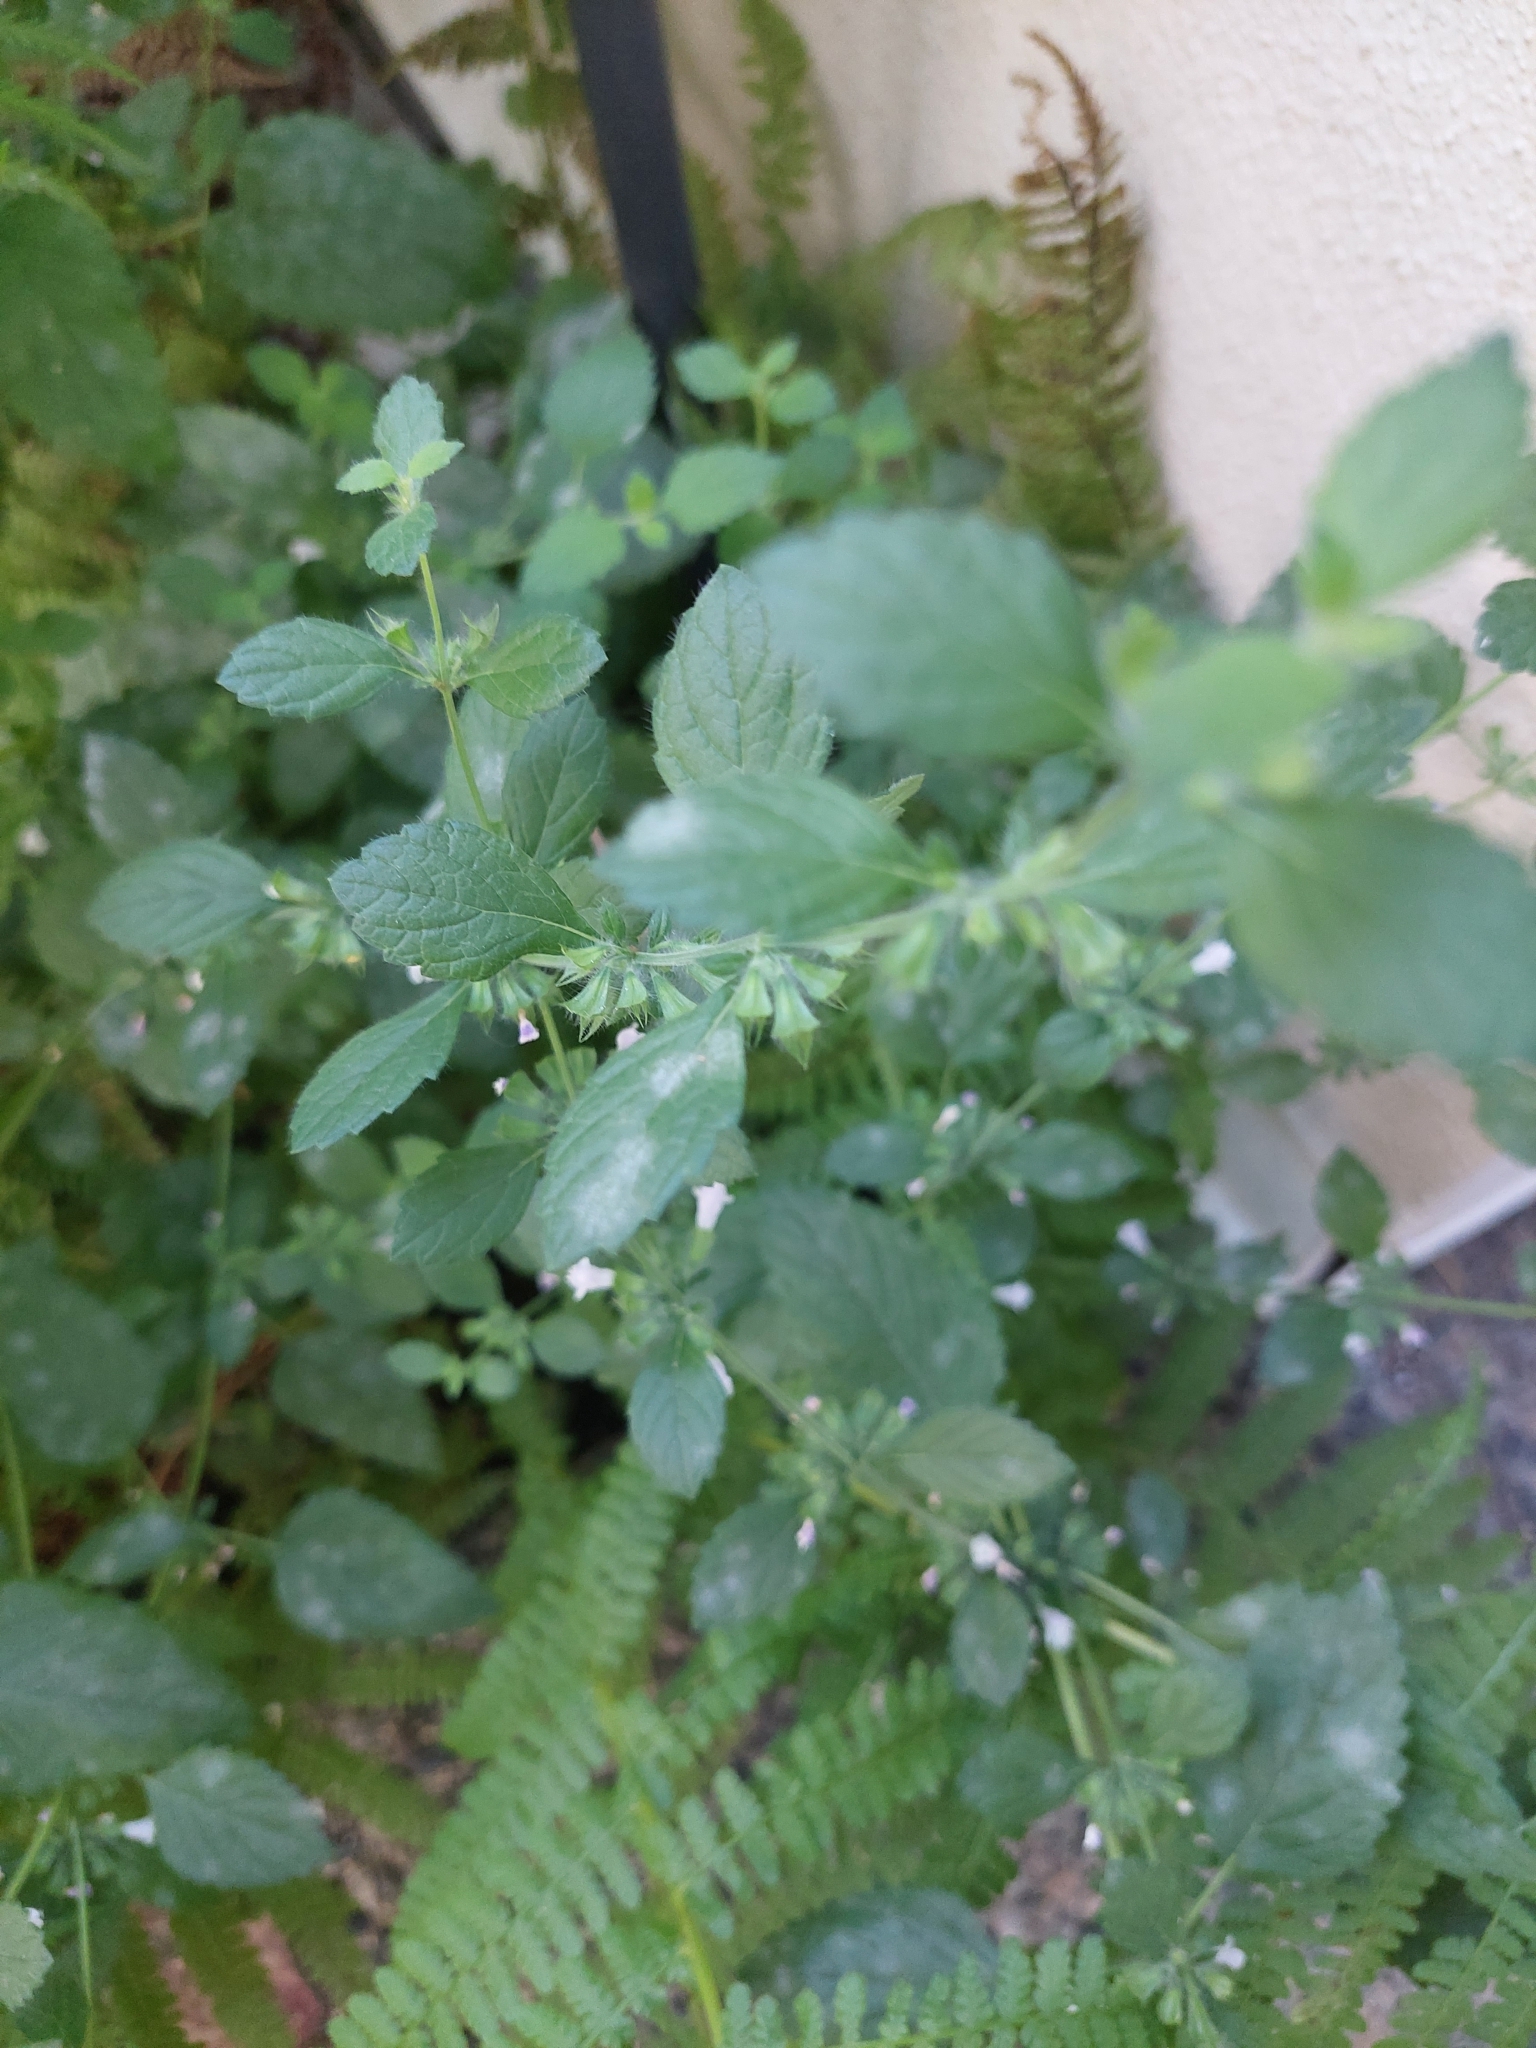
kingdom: Fungi
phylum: Ascomycota
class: Leotiomycetes
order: Helotiales
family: Erysiphaceae
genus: Golovinomyces
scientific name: Golovinomyces monardae
